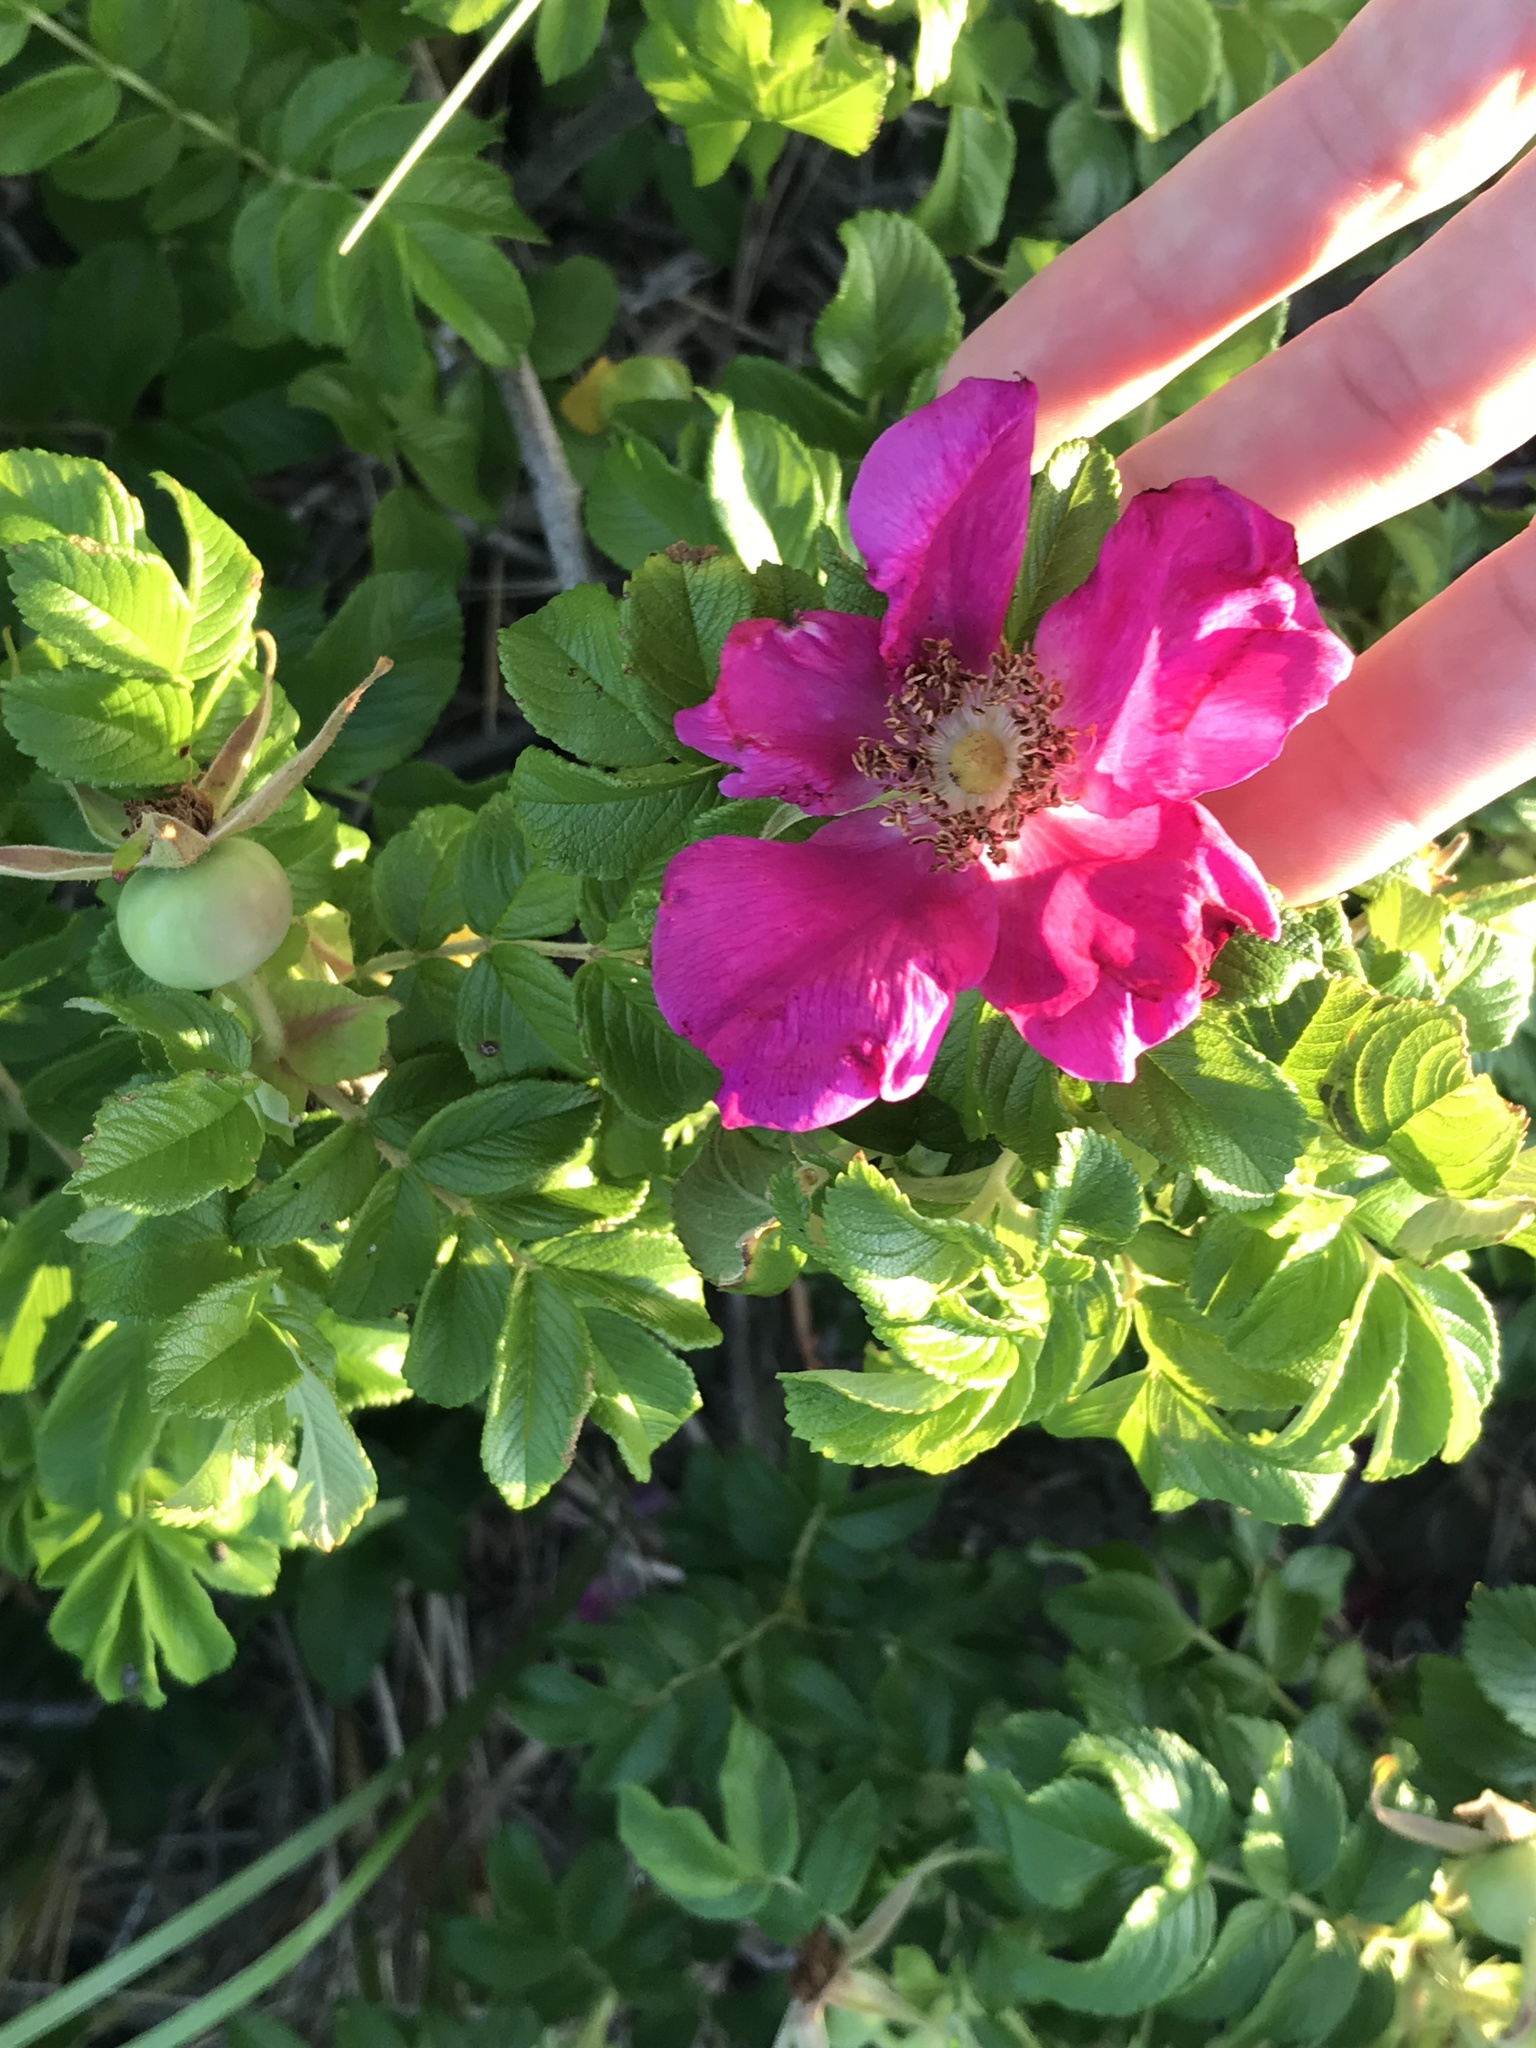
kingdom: Plantae
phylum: Tracheophyta
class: Magnoliopsida
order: Rosales
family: Rosaceae
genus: Rosa
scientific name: Rosa rugosa
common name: Japanese rose
